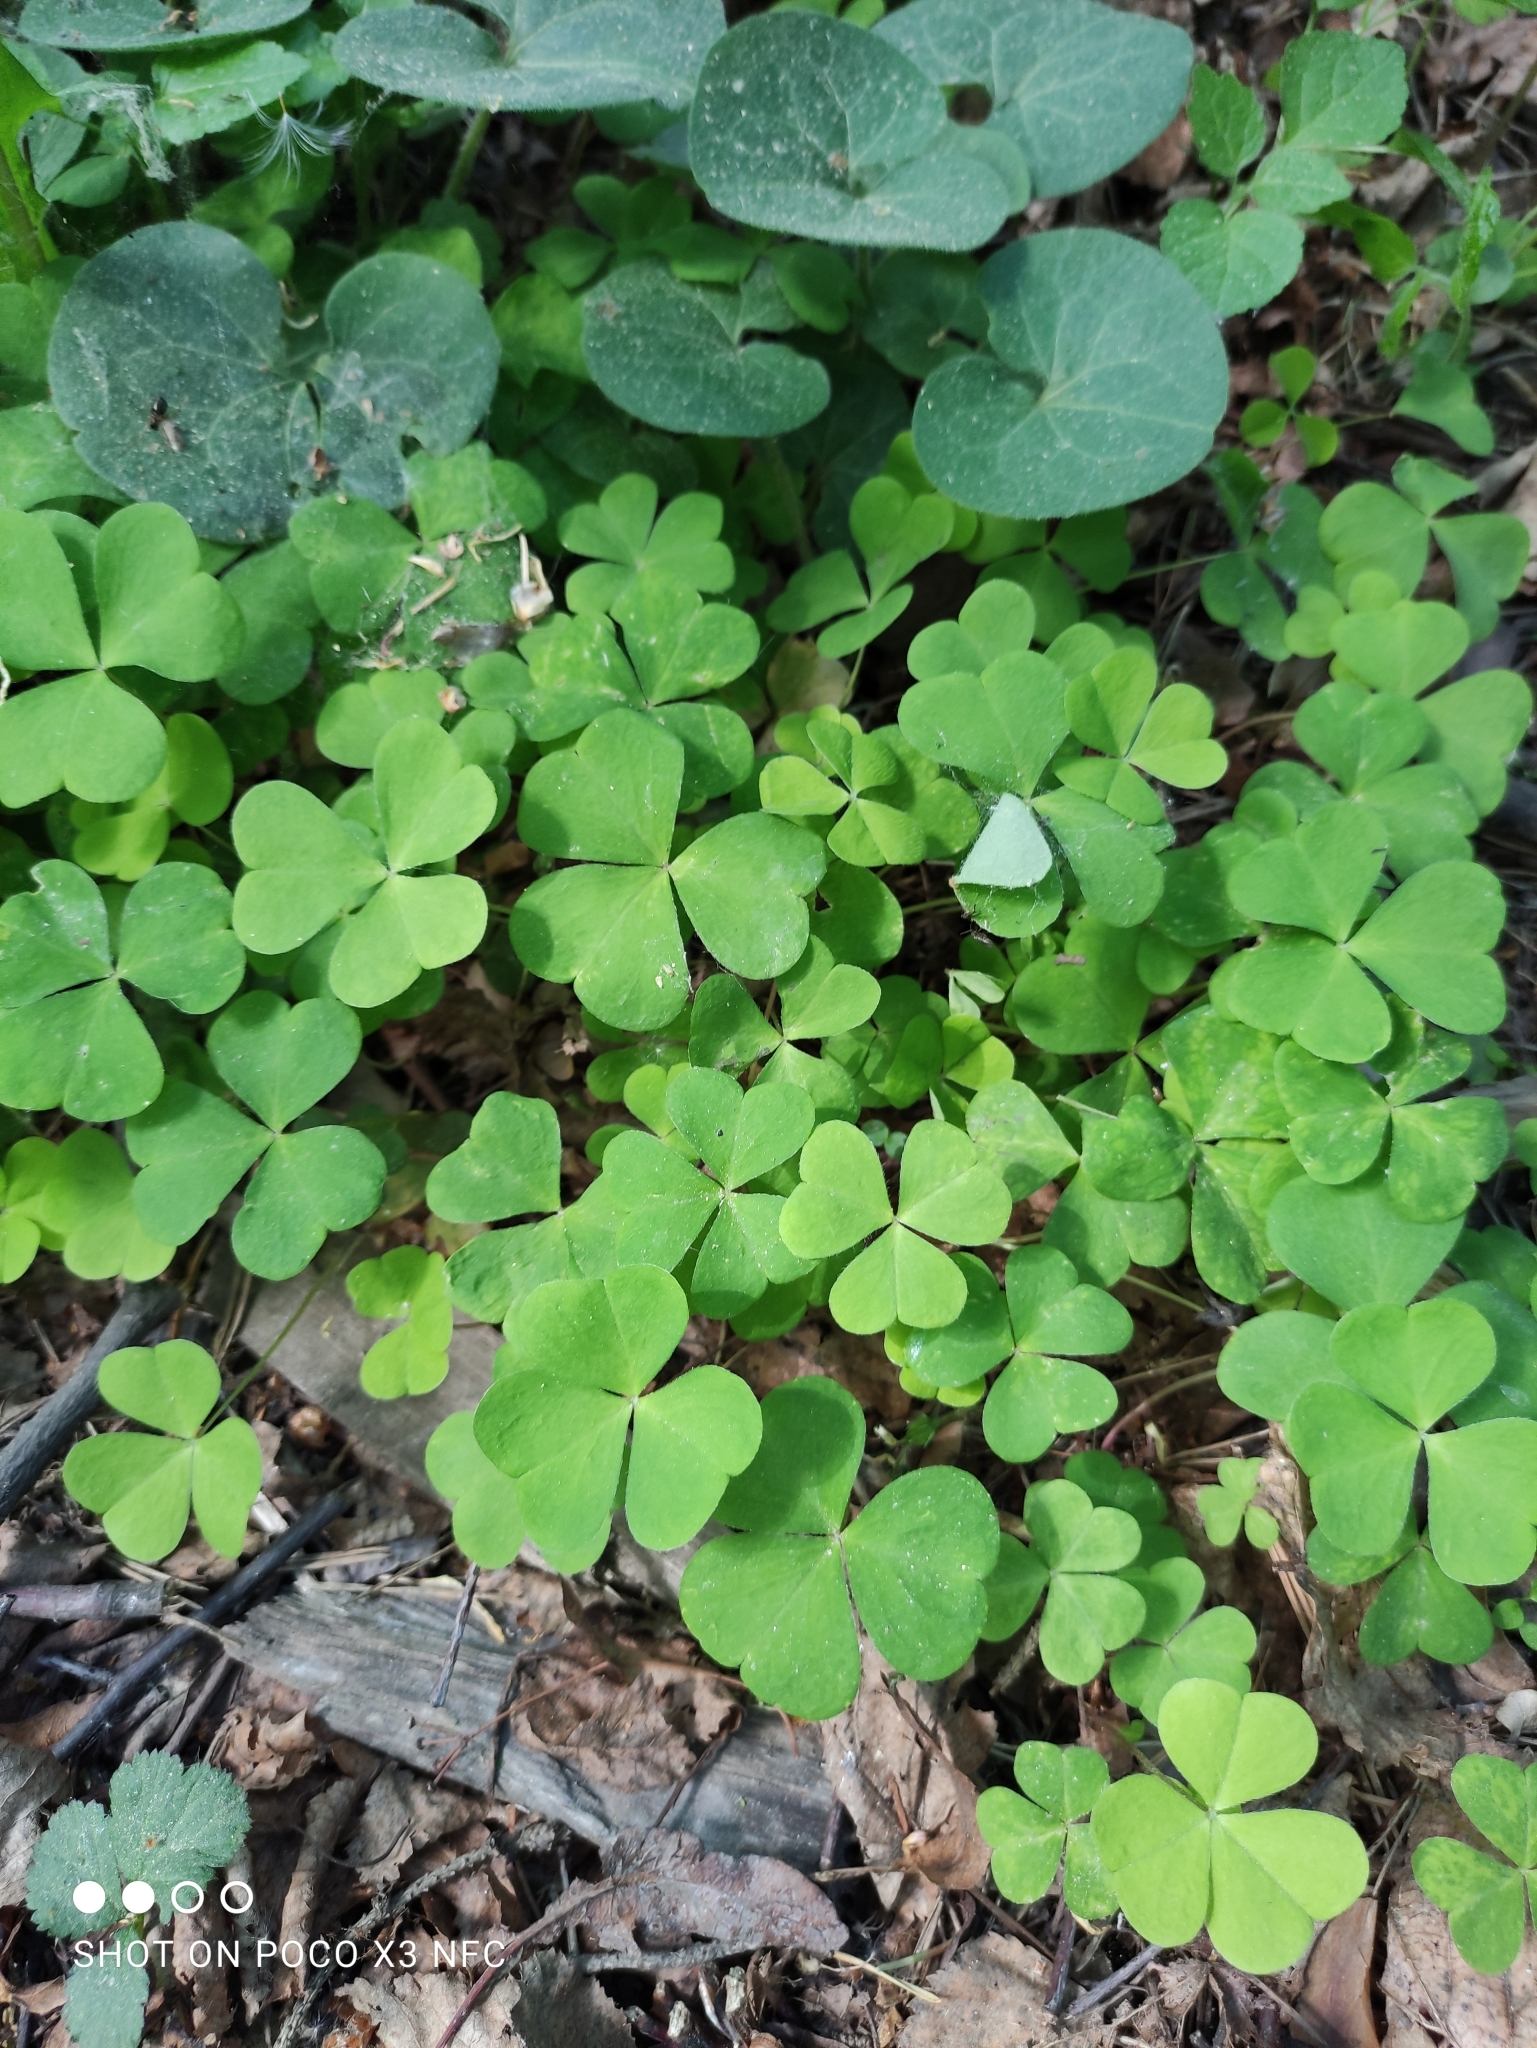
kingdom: Plantae
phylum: Tracheophyta
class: Magnoliopsida
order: Oxalidales
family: Oxalidaceae
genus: Oxalis
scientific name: Oxalis acetosella
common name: Wood-sorrel
